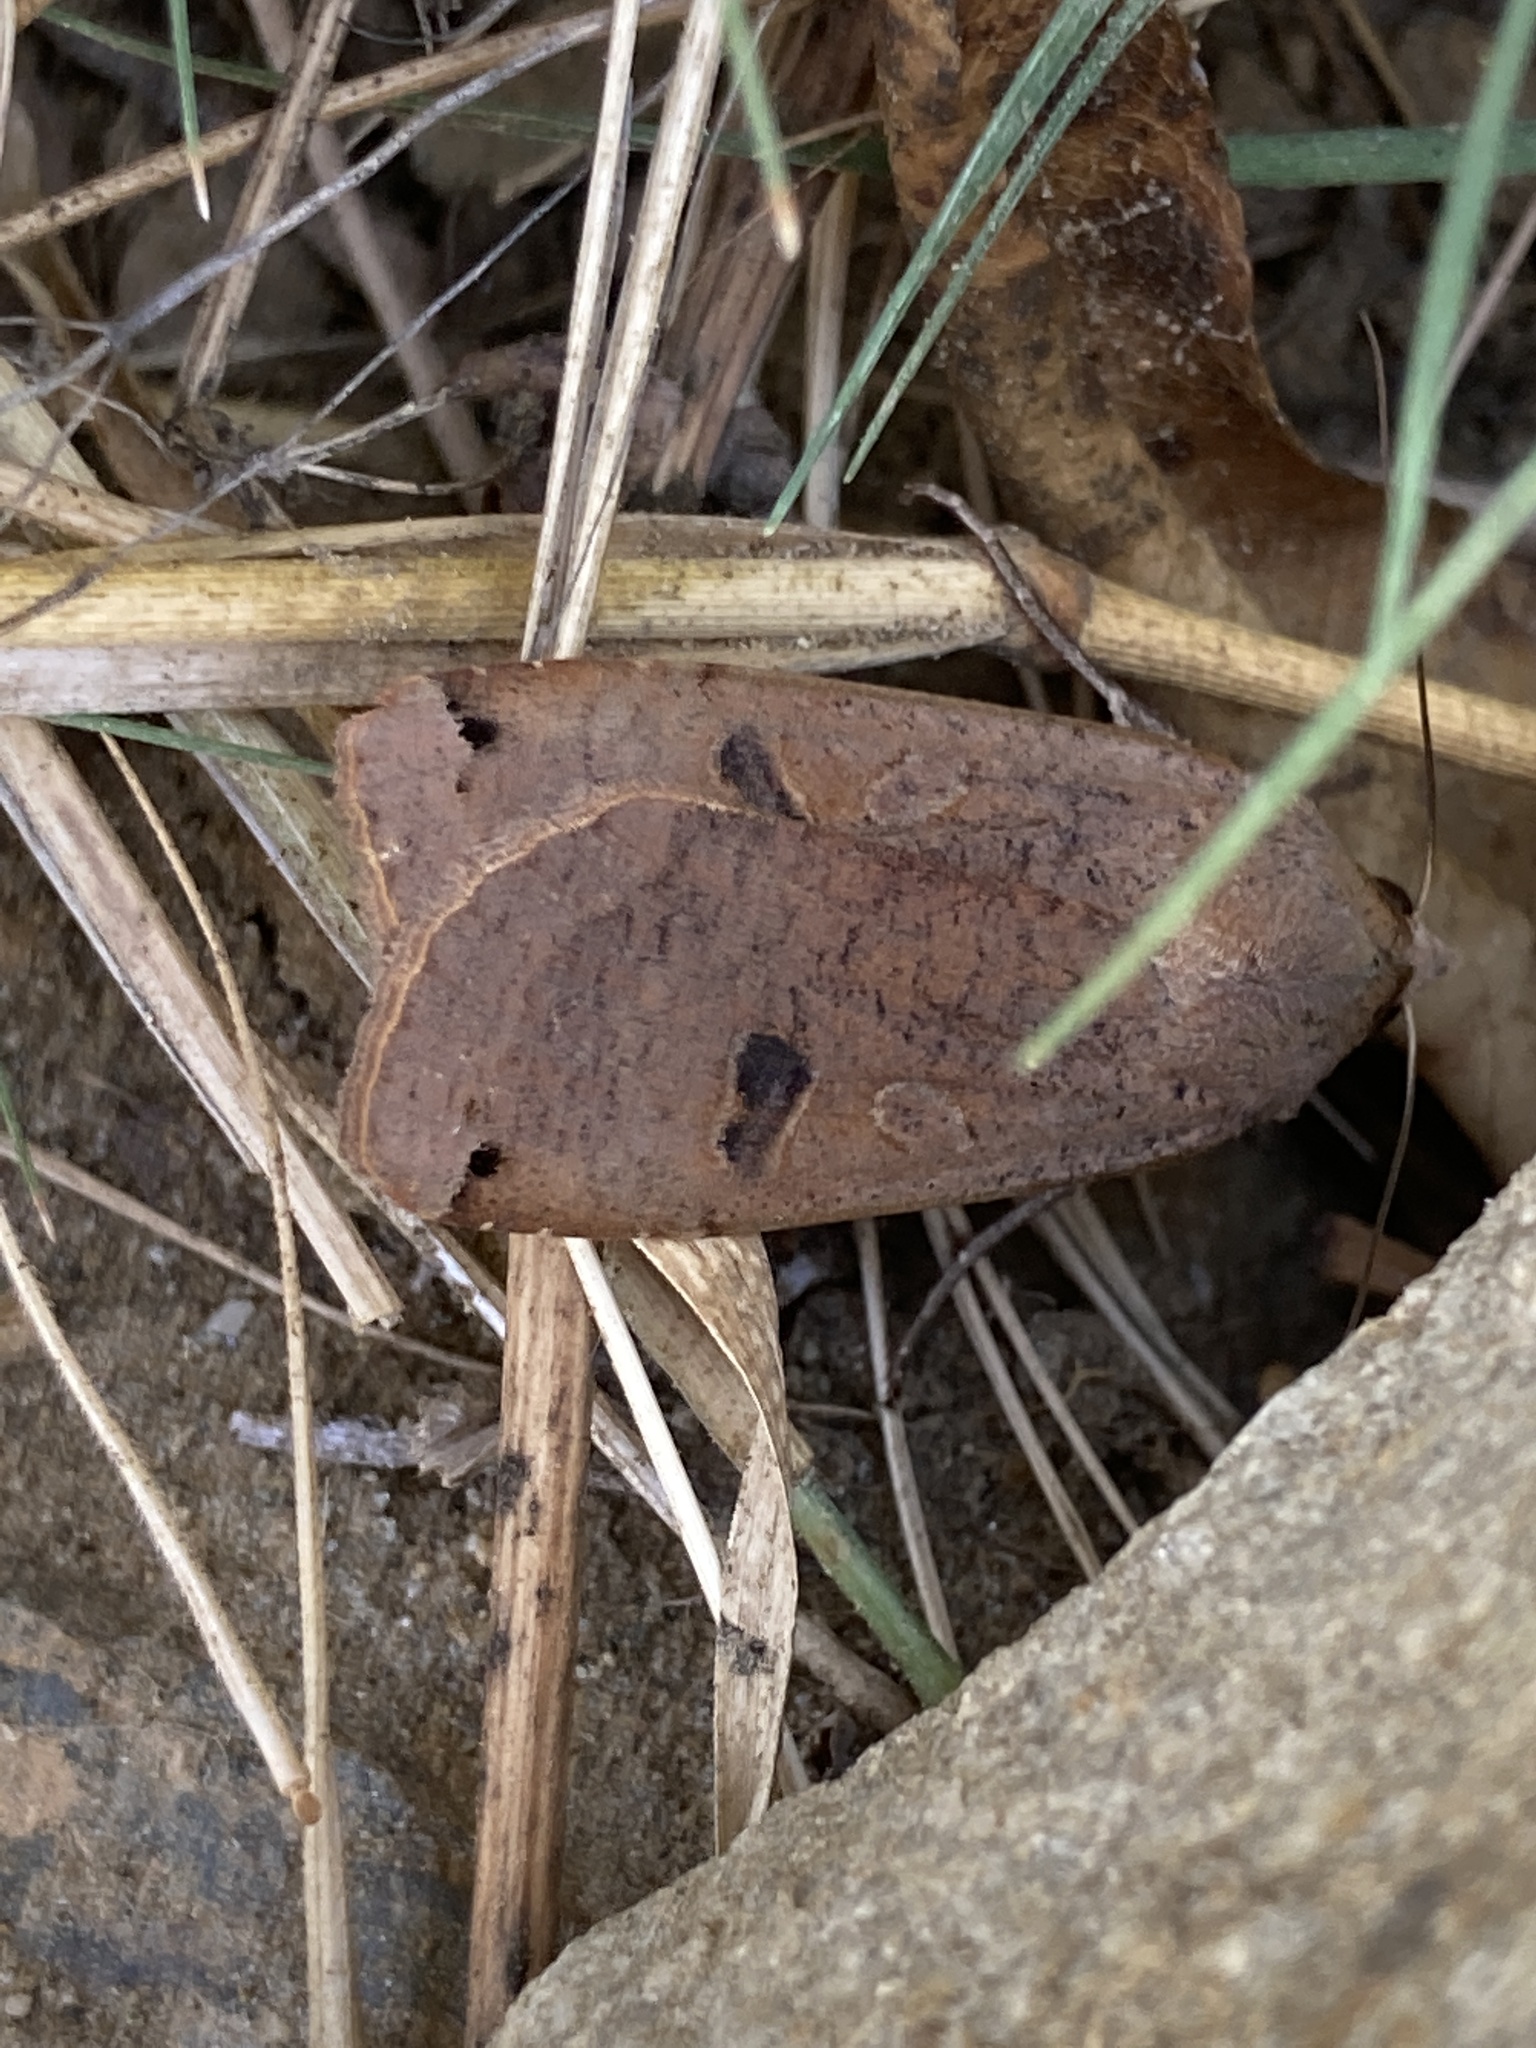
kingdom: Animalia
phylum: Arthropoda
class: Insecta
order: Lepidoptera
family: Noctuidae
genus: Noctua
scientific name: Noctua pronuba
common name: Large yellow underwing
